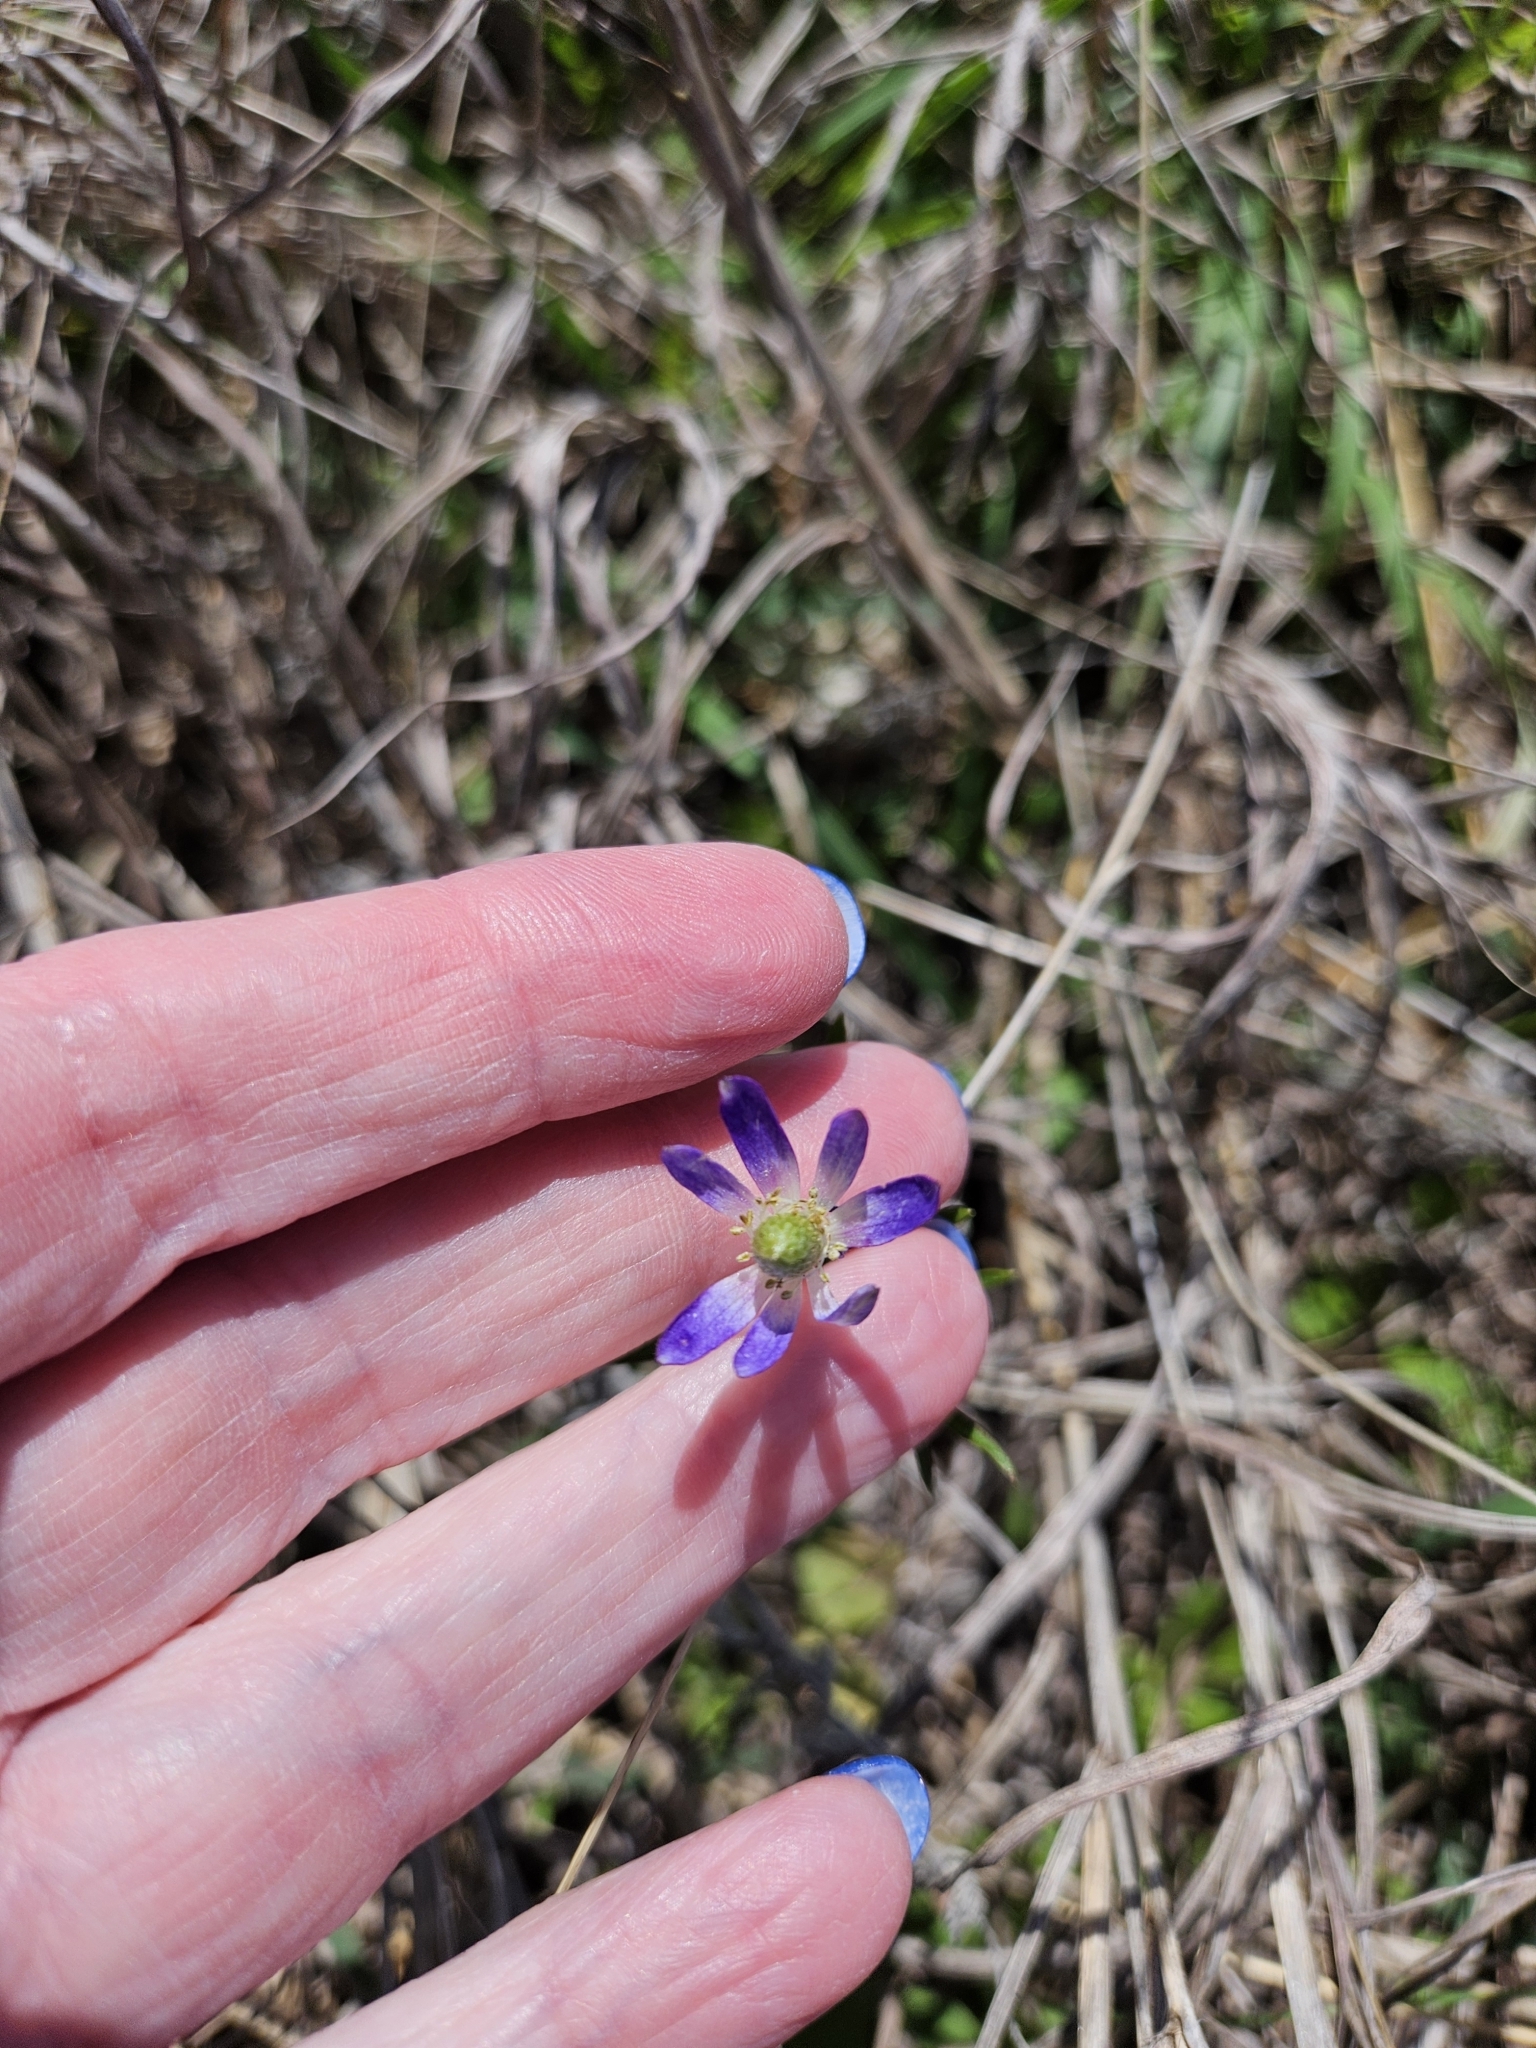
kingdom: Plantae
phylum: Tracheophyta
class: Magnoliopsida
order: Ranunculales
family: Ranunculaceae
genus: Anemone
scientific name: Anemone berlandieri
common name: Ten-petal anemone
